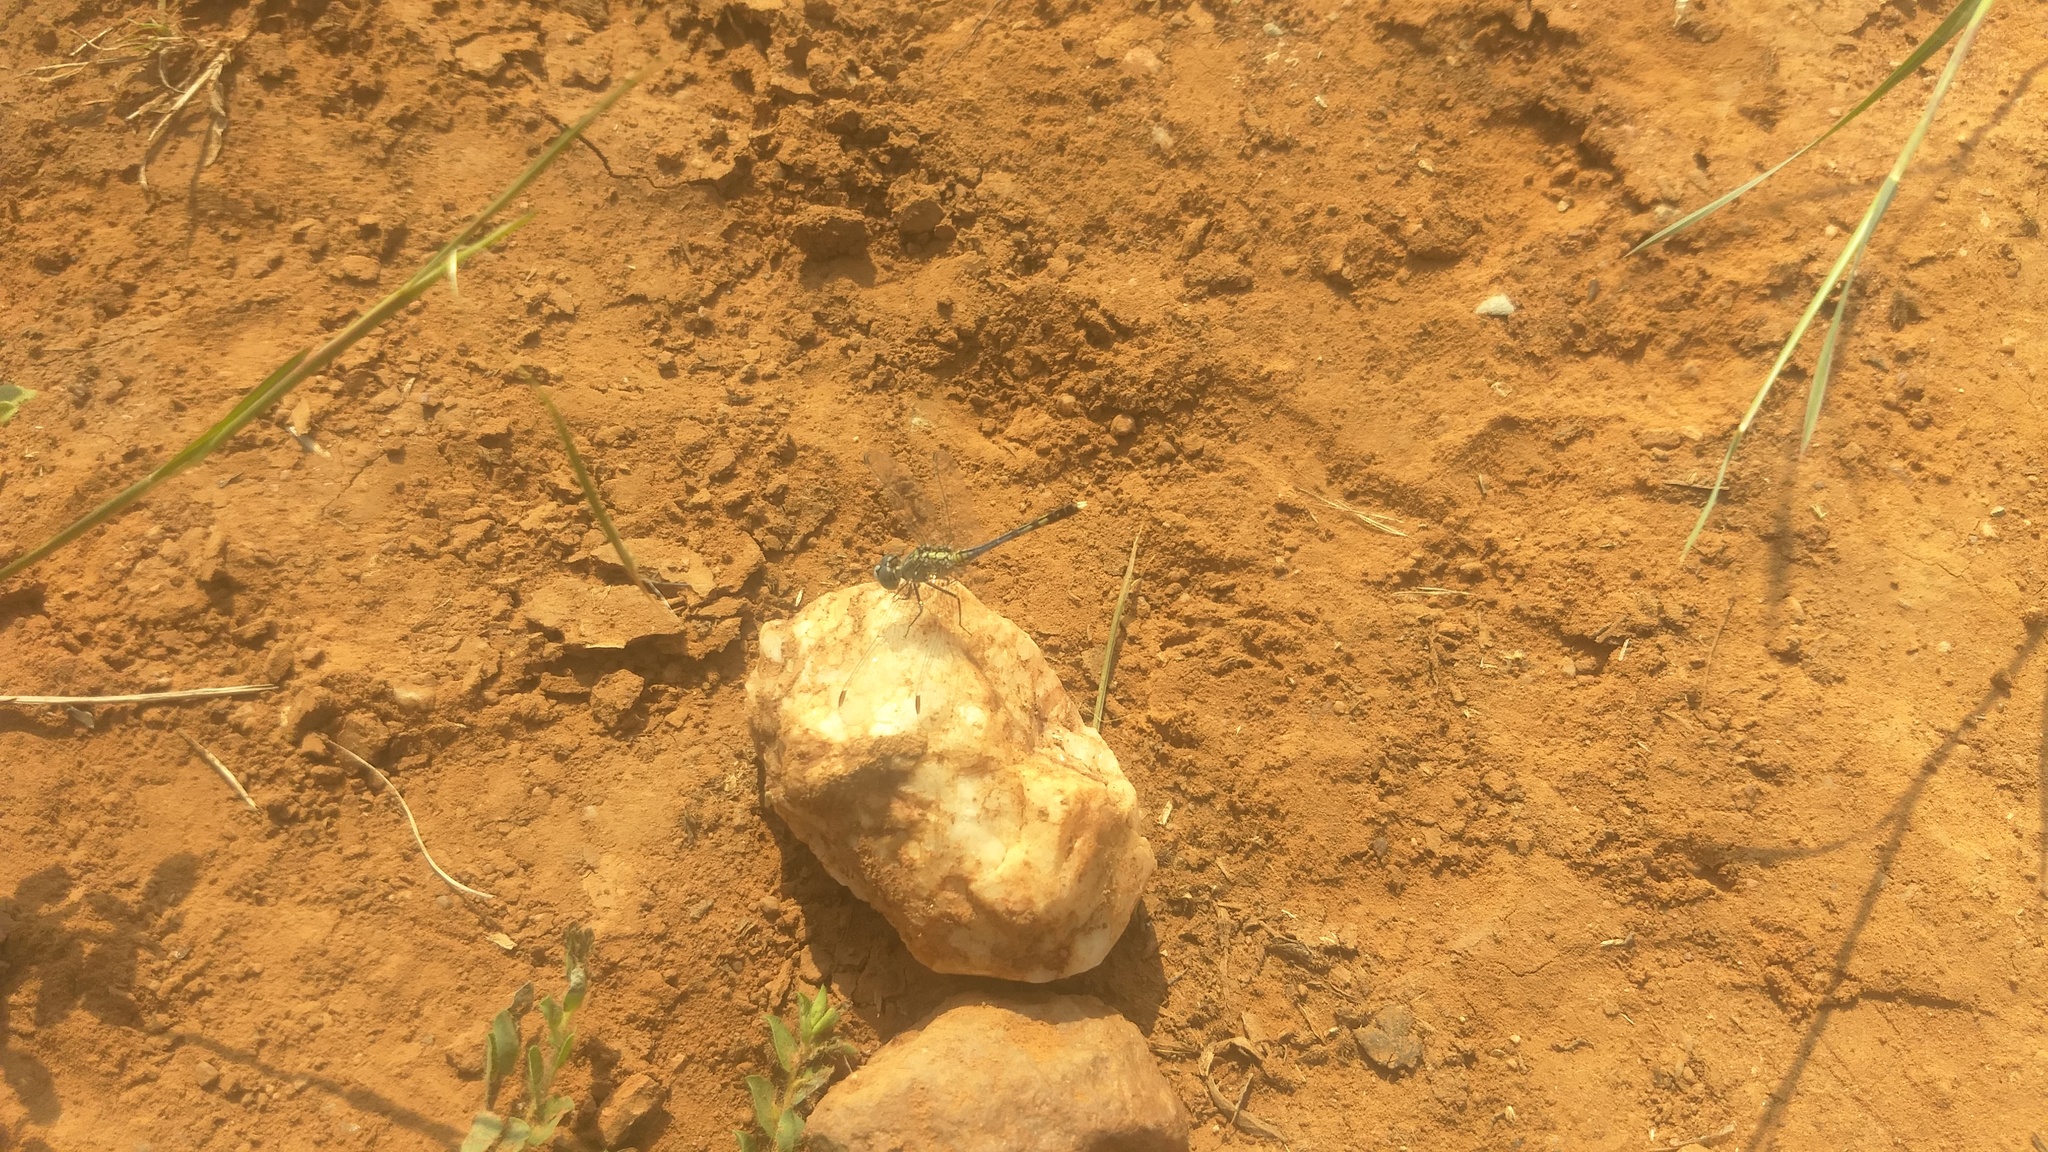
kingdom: Animalia
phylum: Arthropoda
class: Insecta
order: Odonata
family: Libellulidae
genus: Diplacodes
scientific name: Diplacodes trivialis
